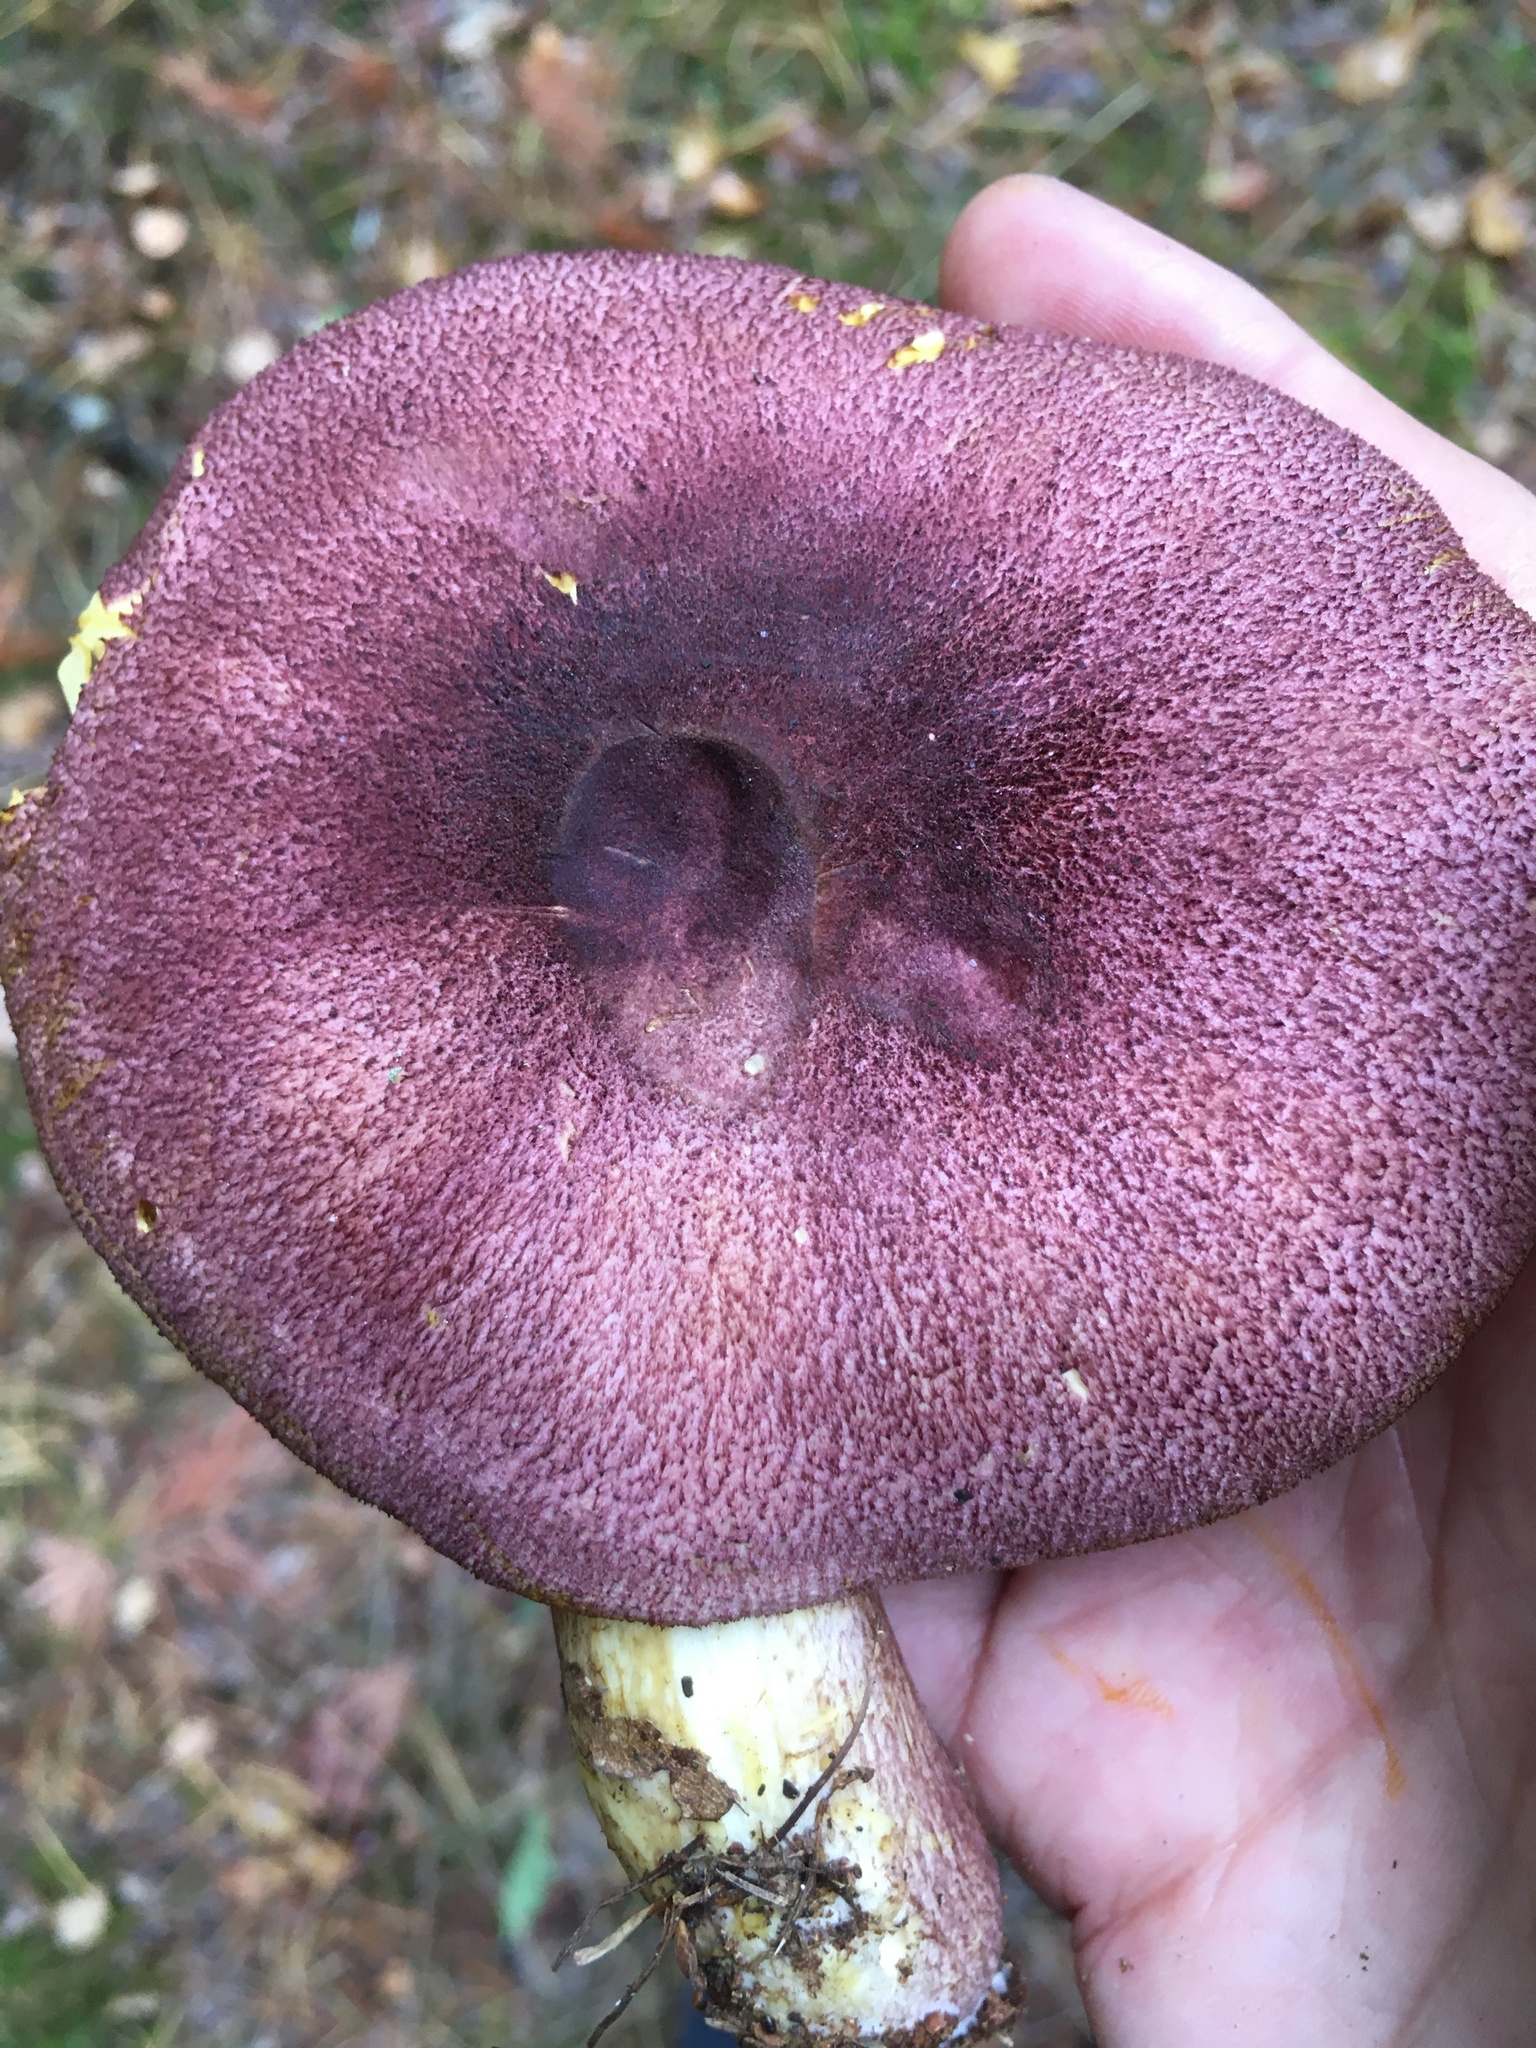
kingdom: Fungi
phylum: Basidiomycota
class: Agaricomycetes
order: Agaricales
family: Tricholomataceae
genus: Tricholomopsis
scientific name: Tricholomopsis rutilans
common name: Plums and custard
